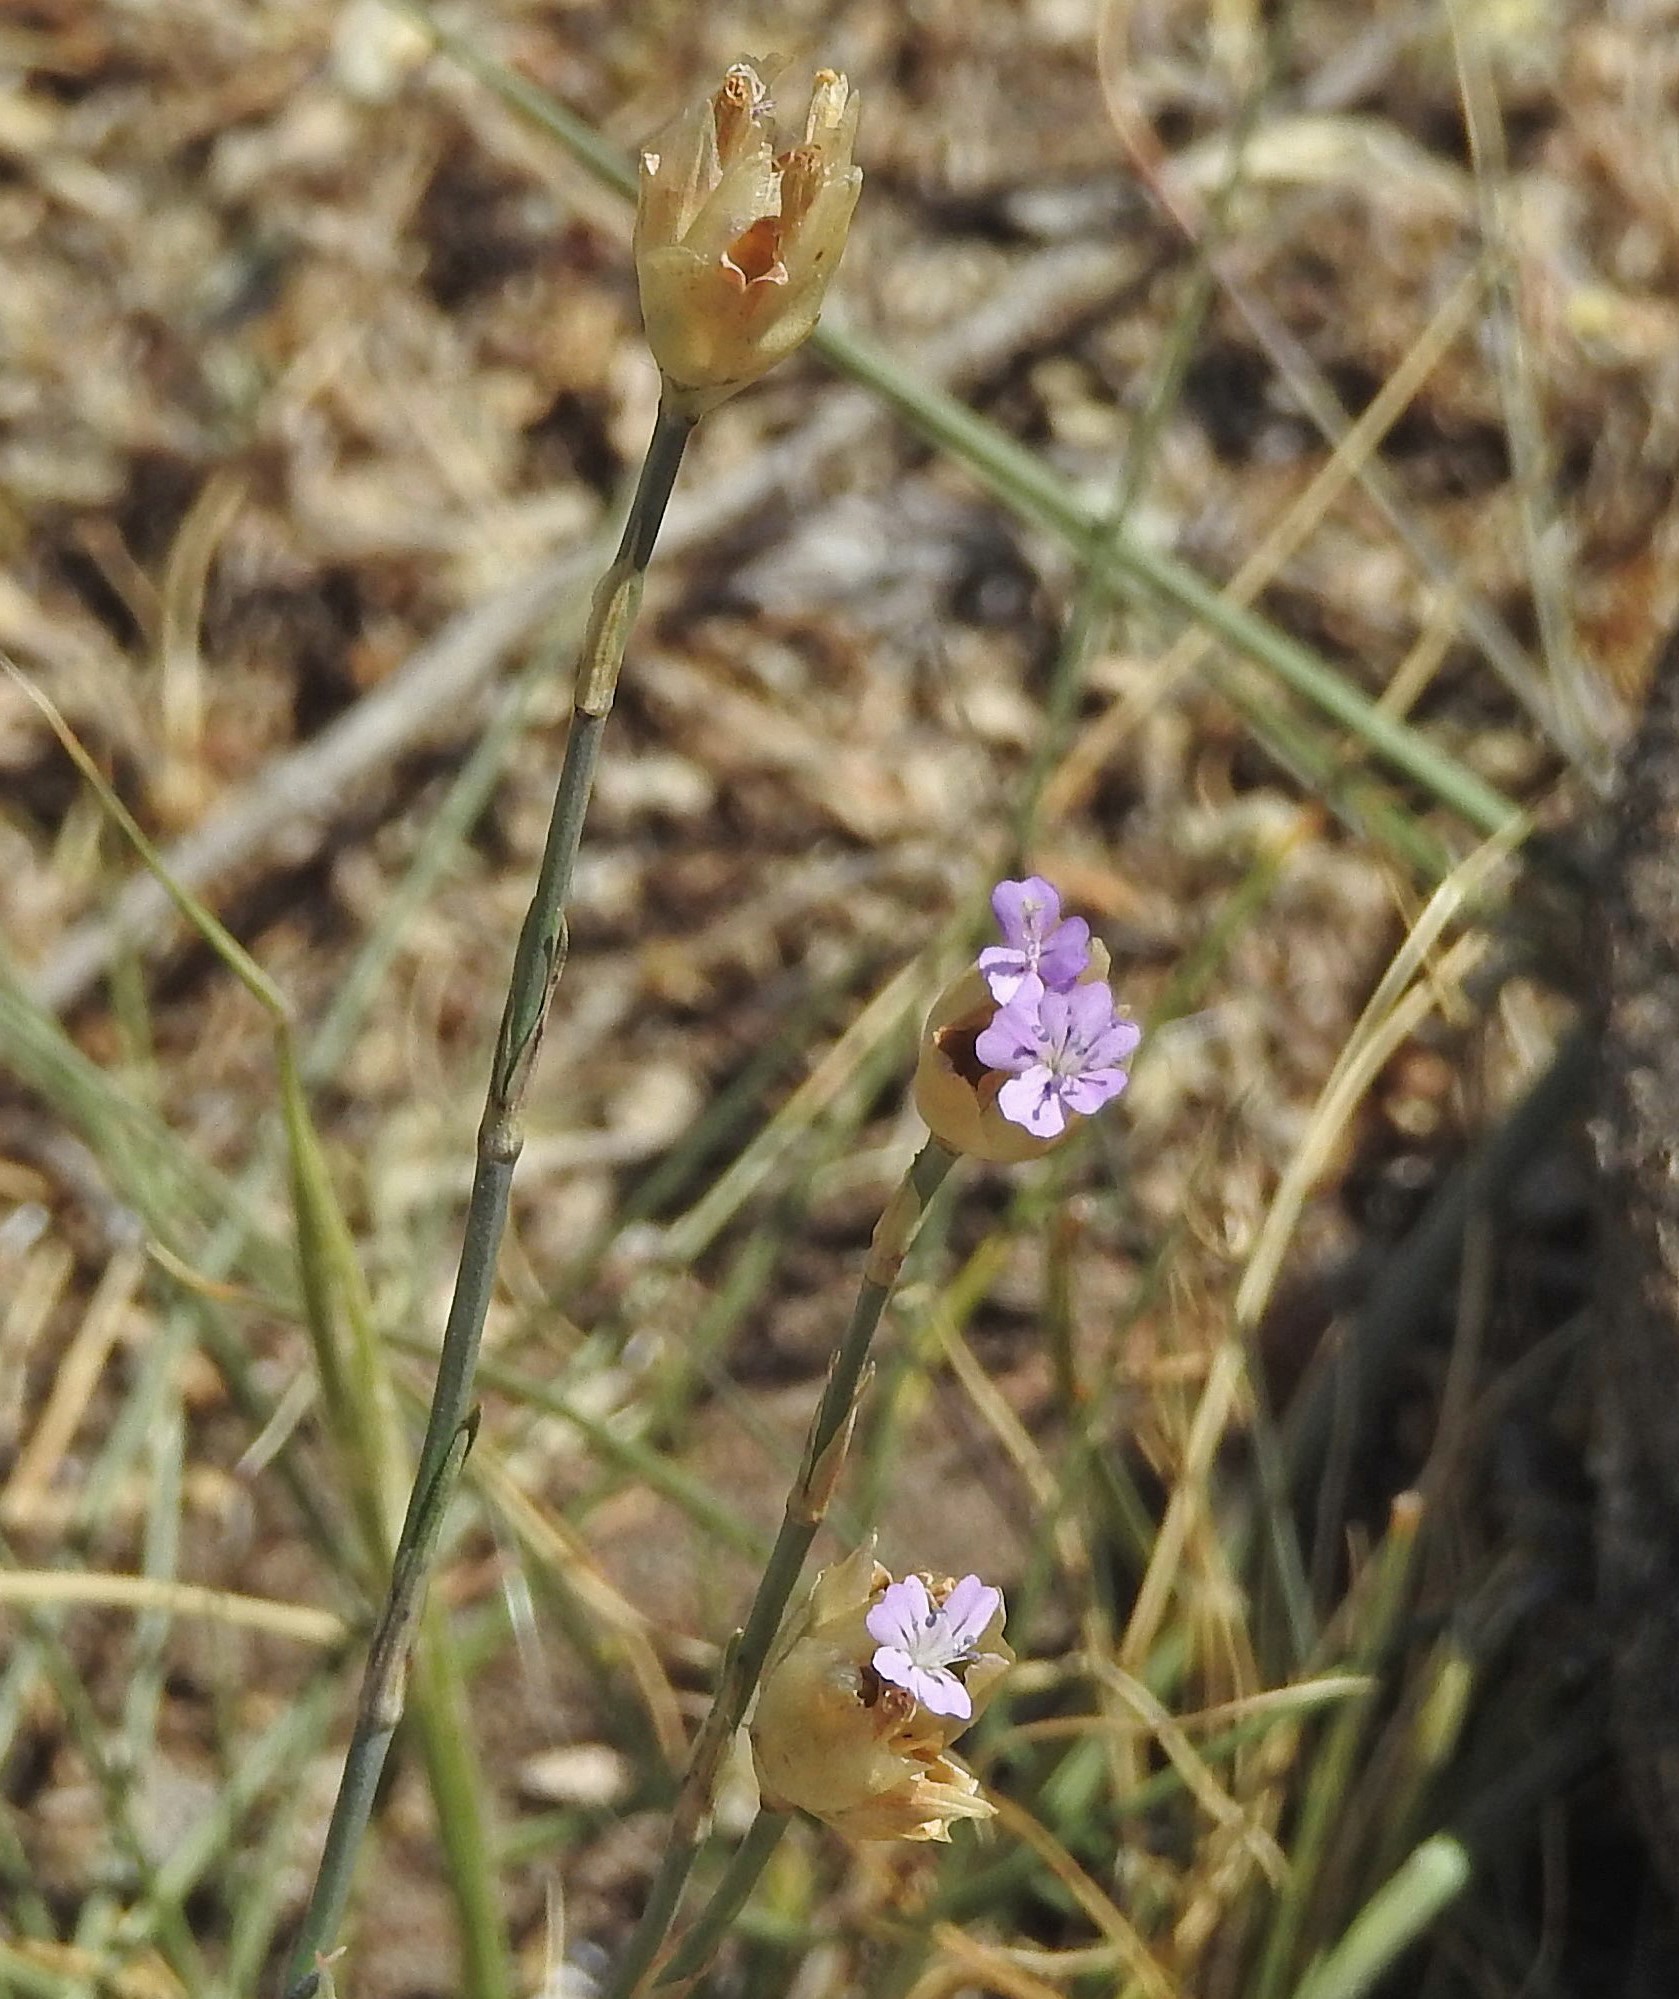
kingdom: Plantae
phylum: Tracheophyta
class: Magnoliopsida
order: Caryophyllales
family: Caryophyllaceae
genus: Petrorhagia
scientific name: Petrorhagia prolifera
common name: Proliferous pink
